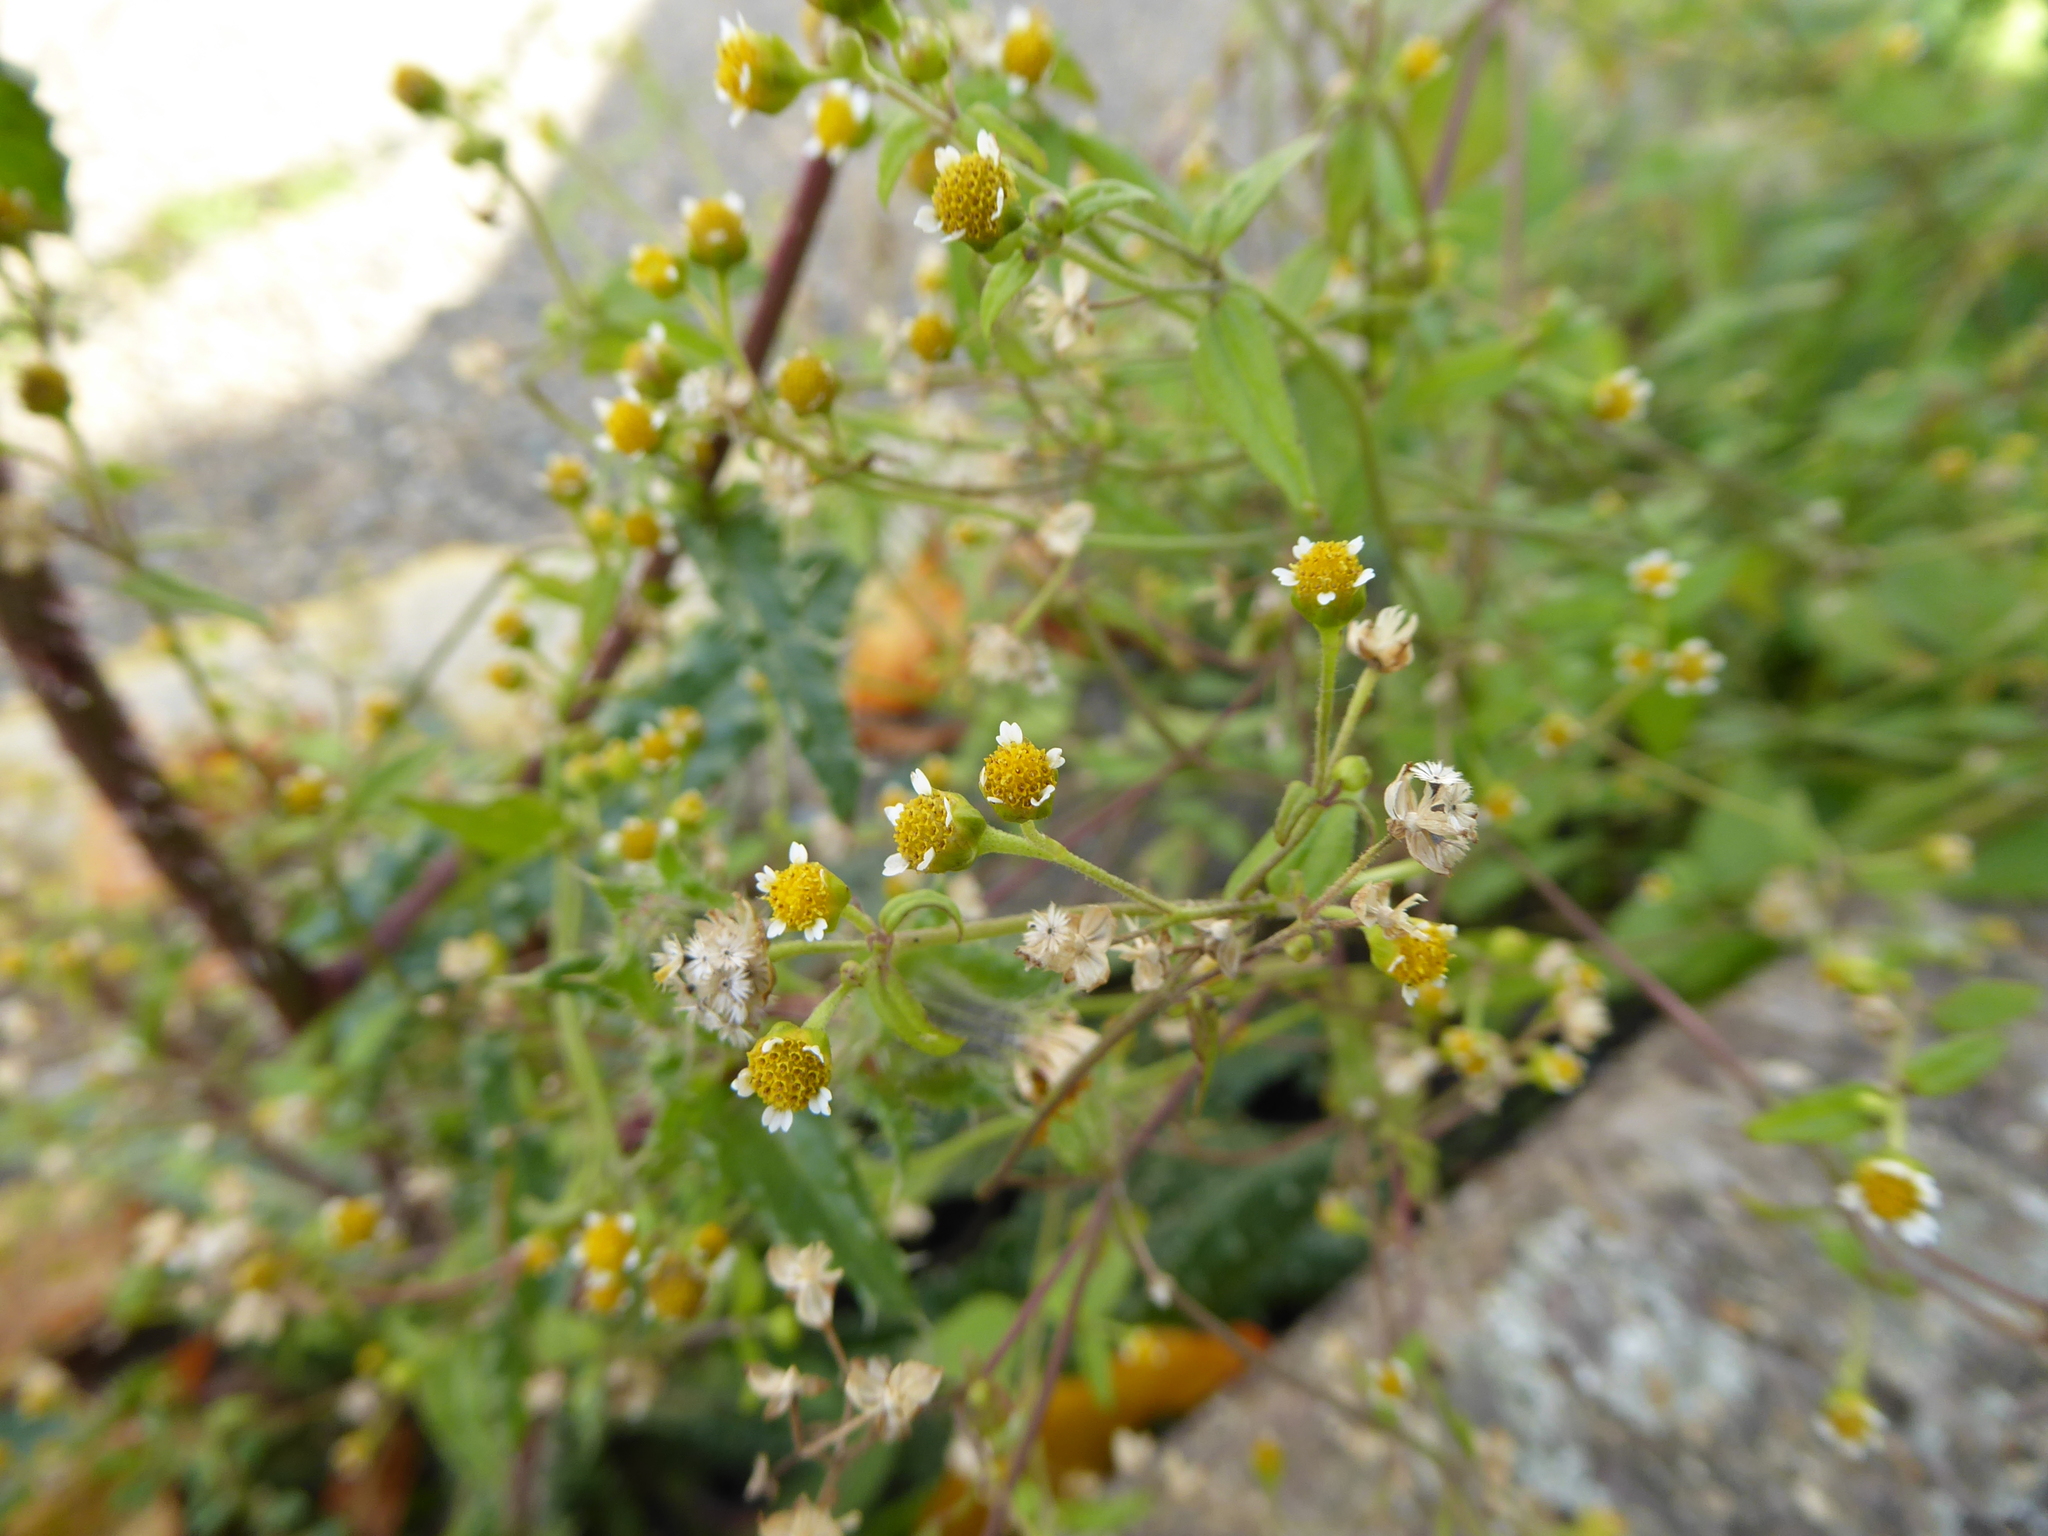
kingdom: Plantae
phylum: Tracheophyta
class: Magnoliopsida
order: Asterales
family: Asteraceae
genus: Galinsoga
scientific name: Galinsoga parviflora
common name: Gallant soldier
